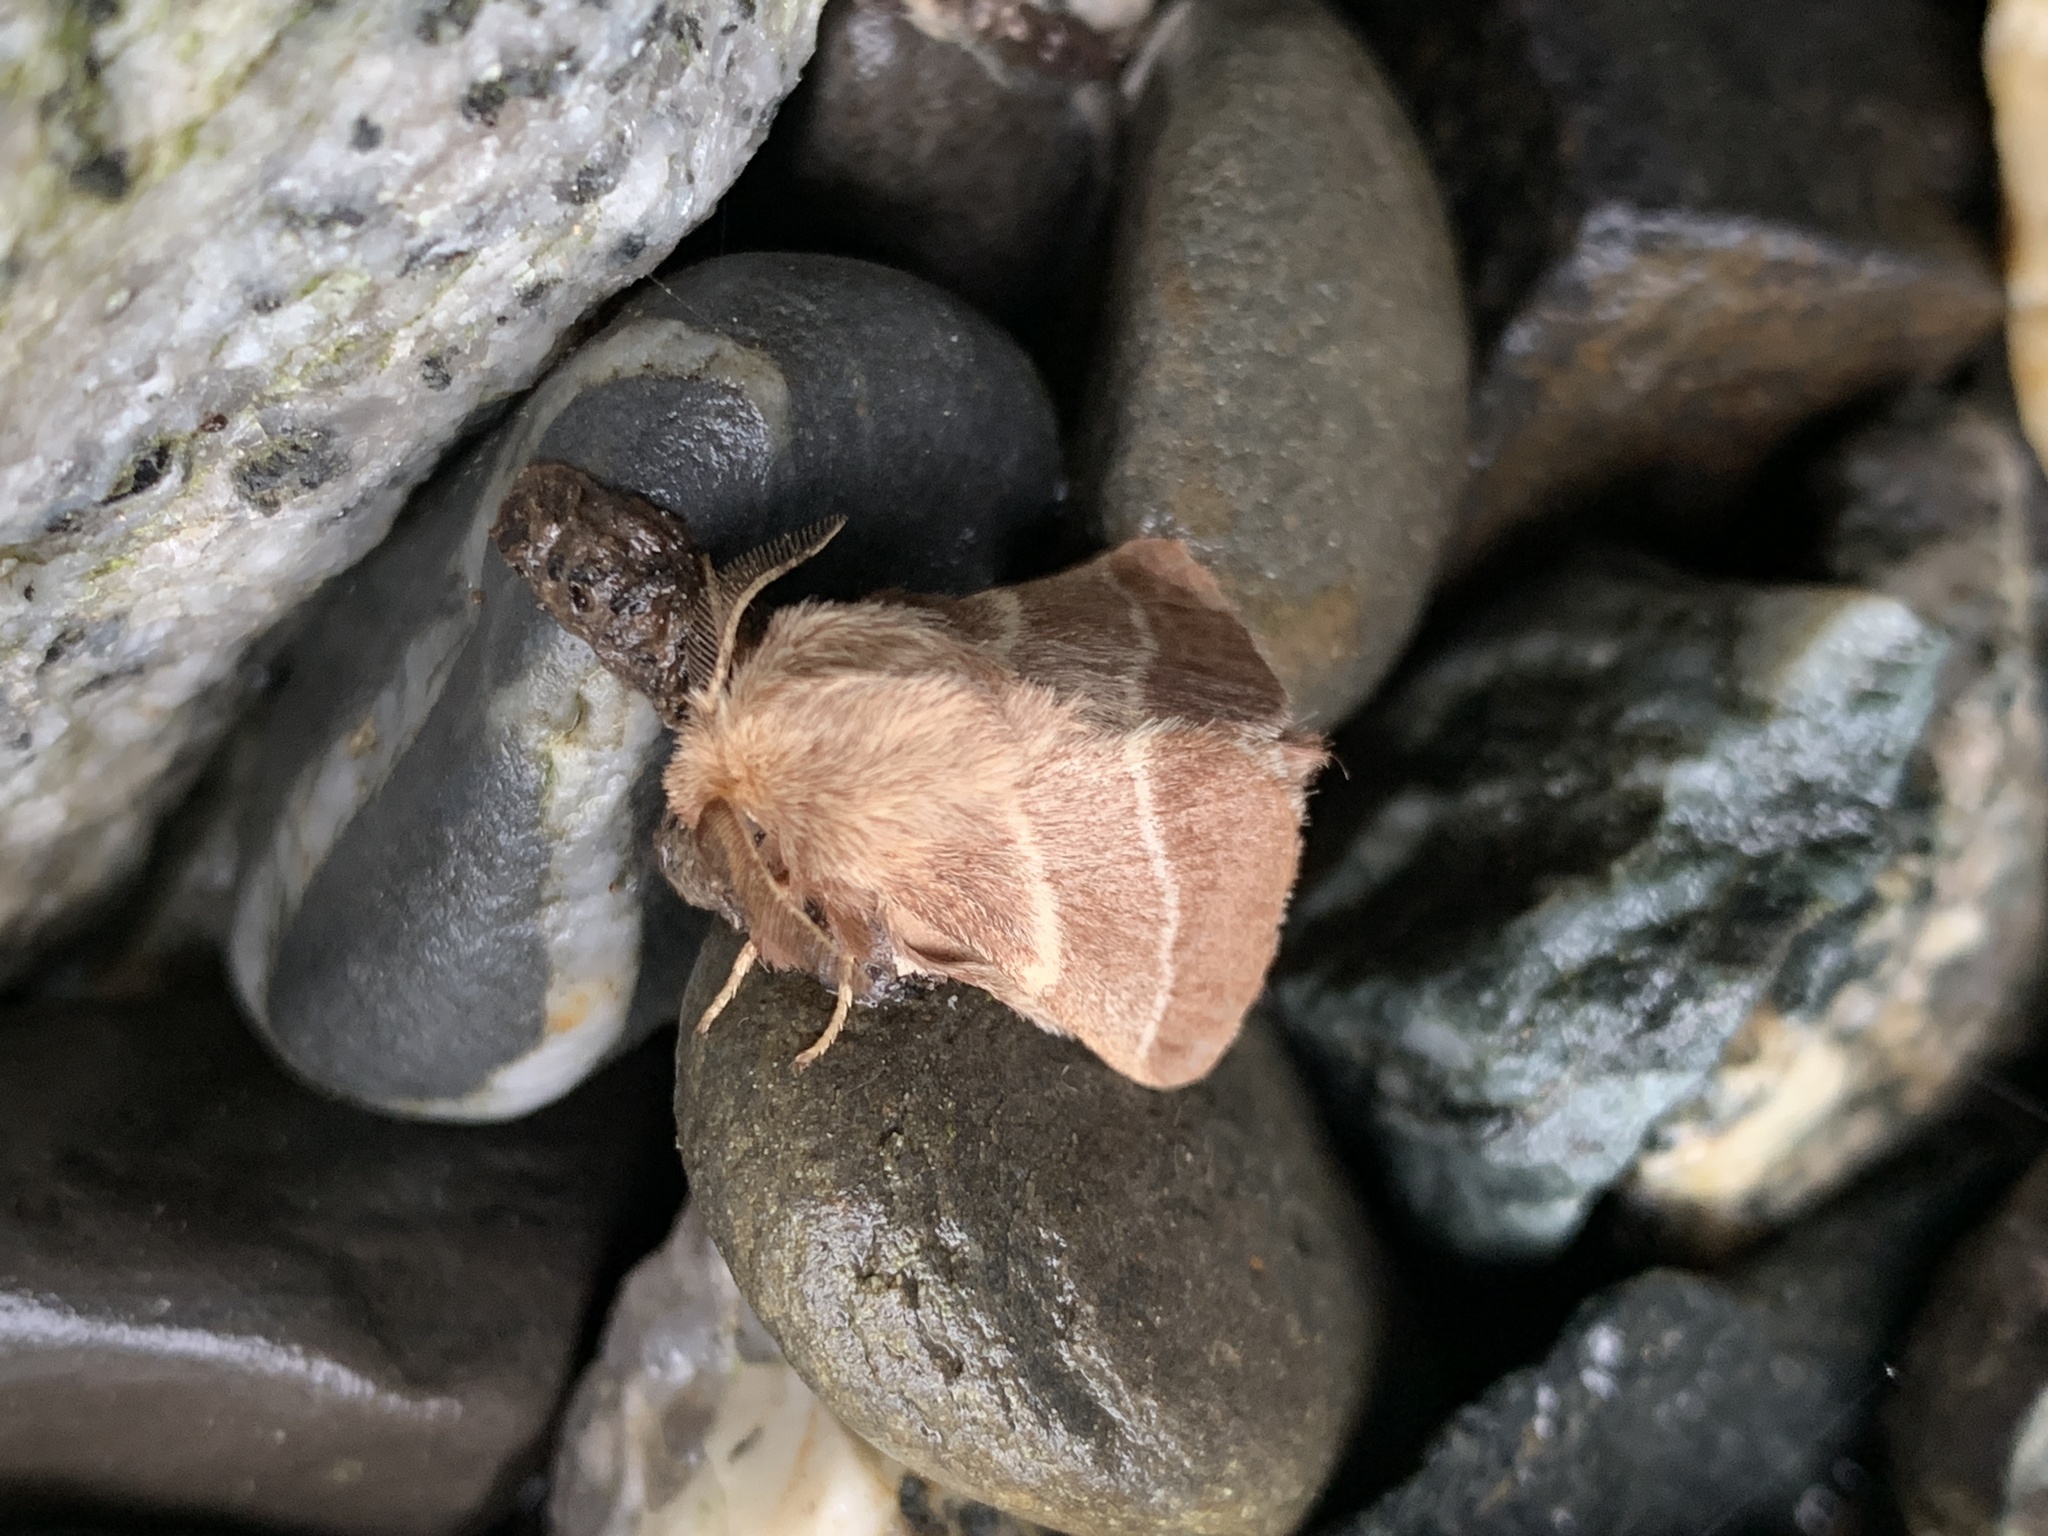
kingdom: Animalia
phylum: Arthropoda
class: Insecta
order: Lepidoptera
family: Lasiocampidae
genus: Malacosoma
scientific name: Malacosoma americana
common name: Eastern tent caterpillar moth
